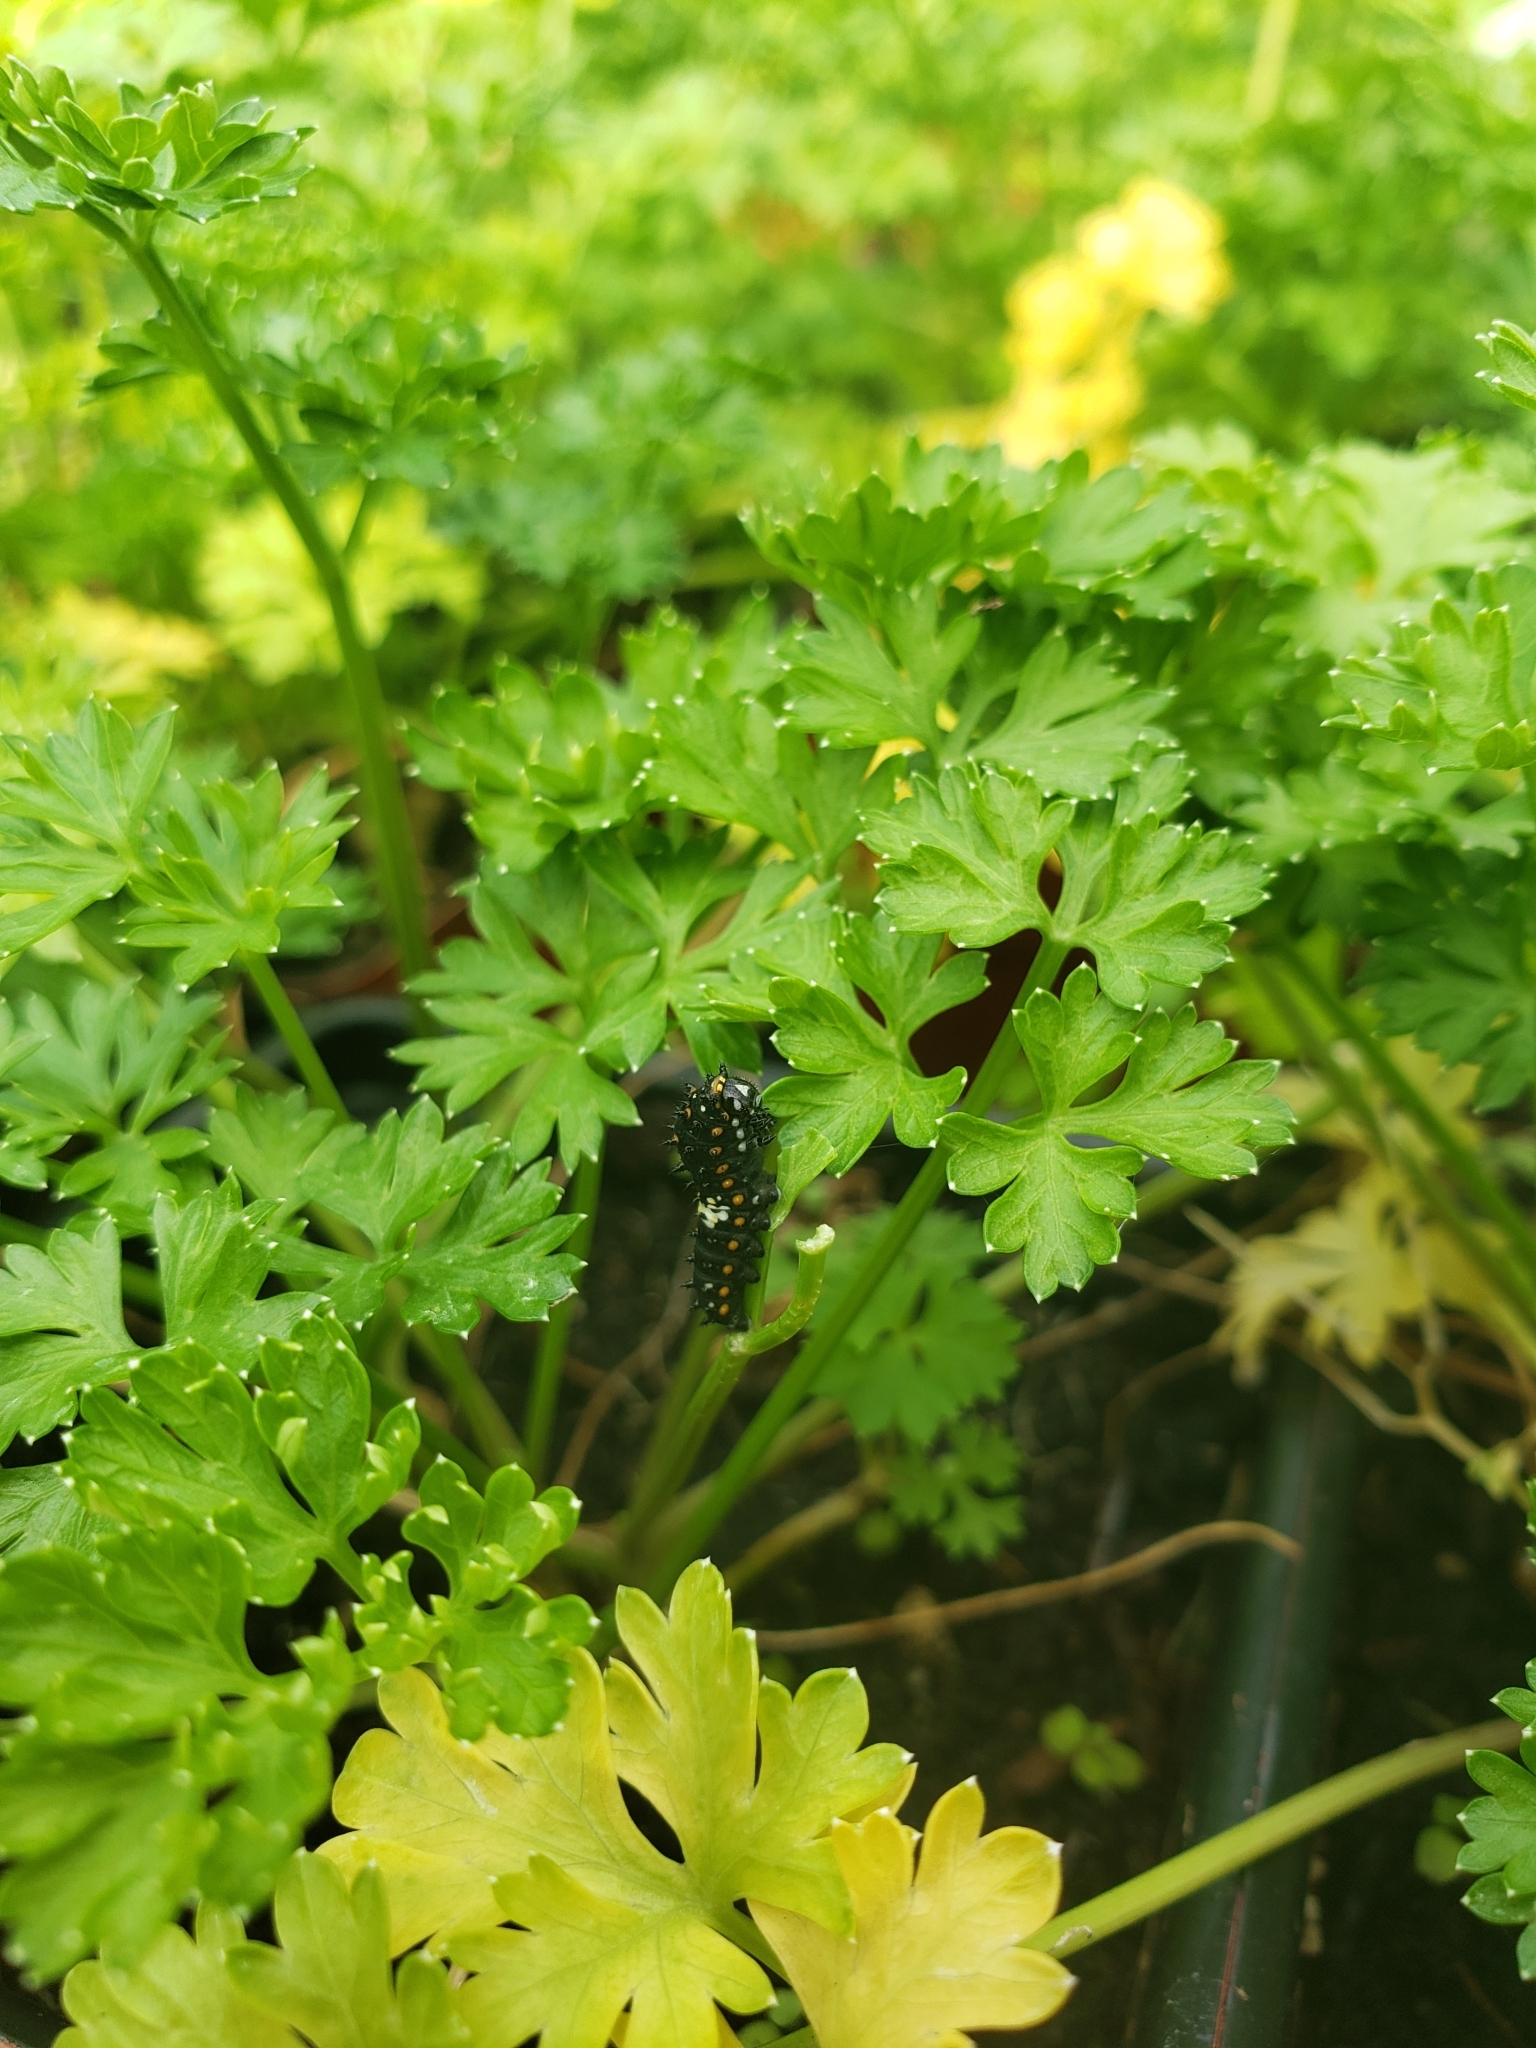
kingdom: Animalia
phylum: Arthropoda
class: Insecta
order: Lepidoptera
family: Papilionidae
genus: Papilio
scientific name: Papilio polyxenes
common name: Black swallowtail
